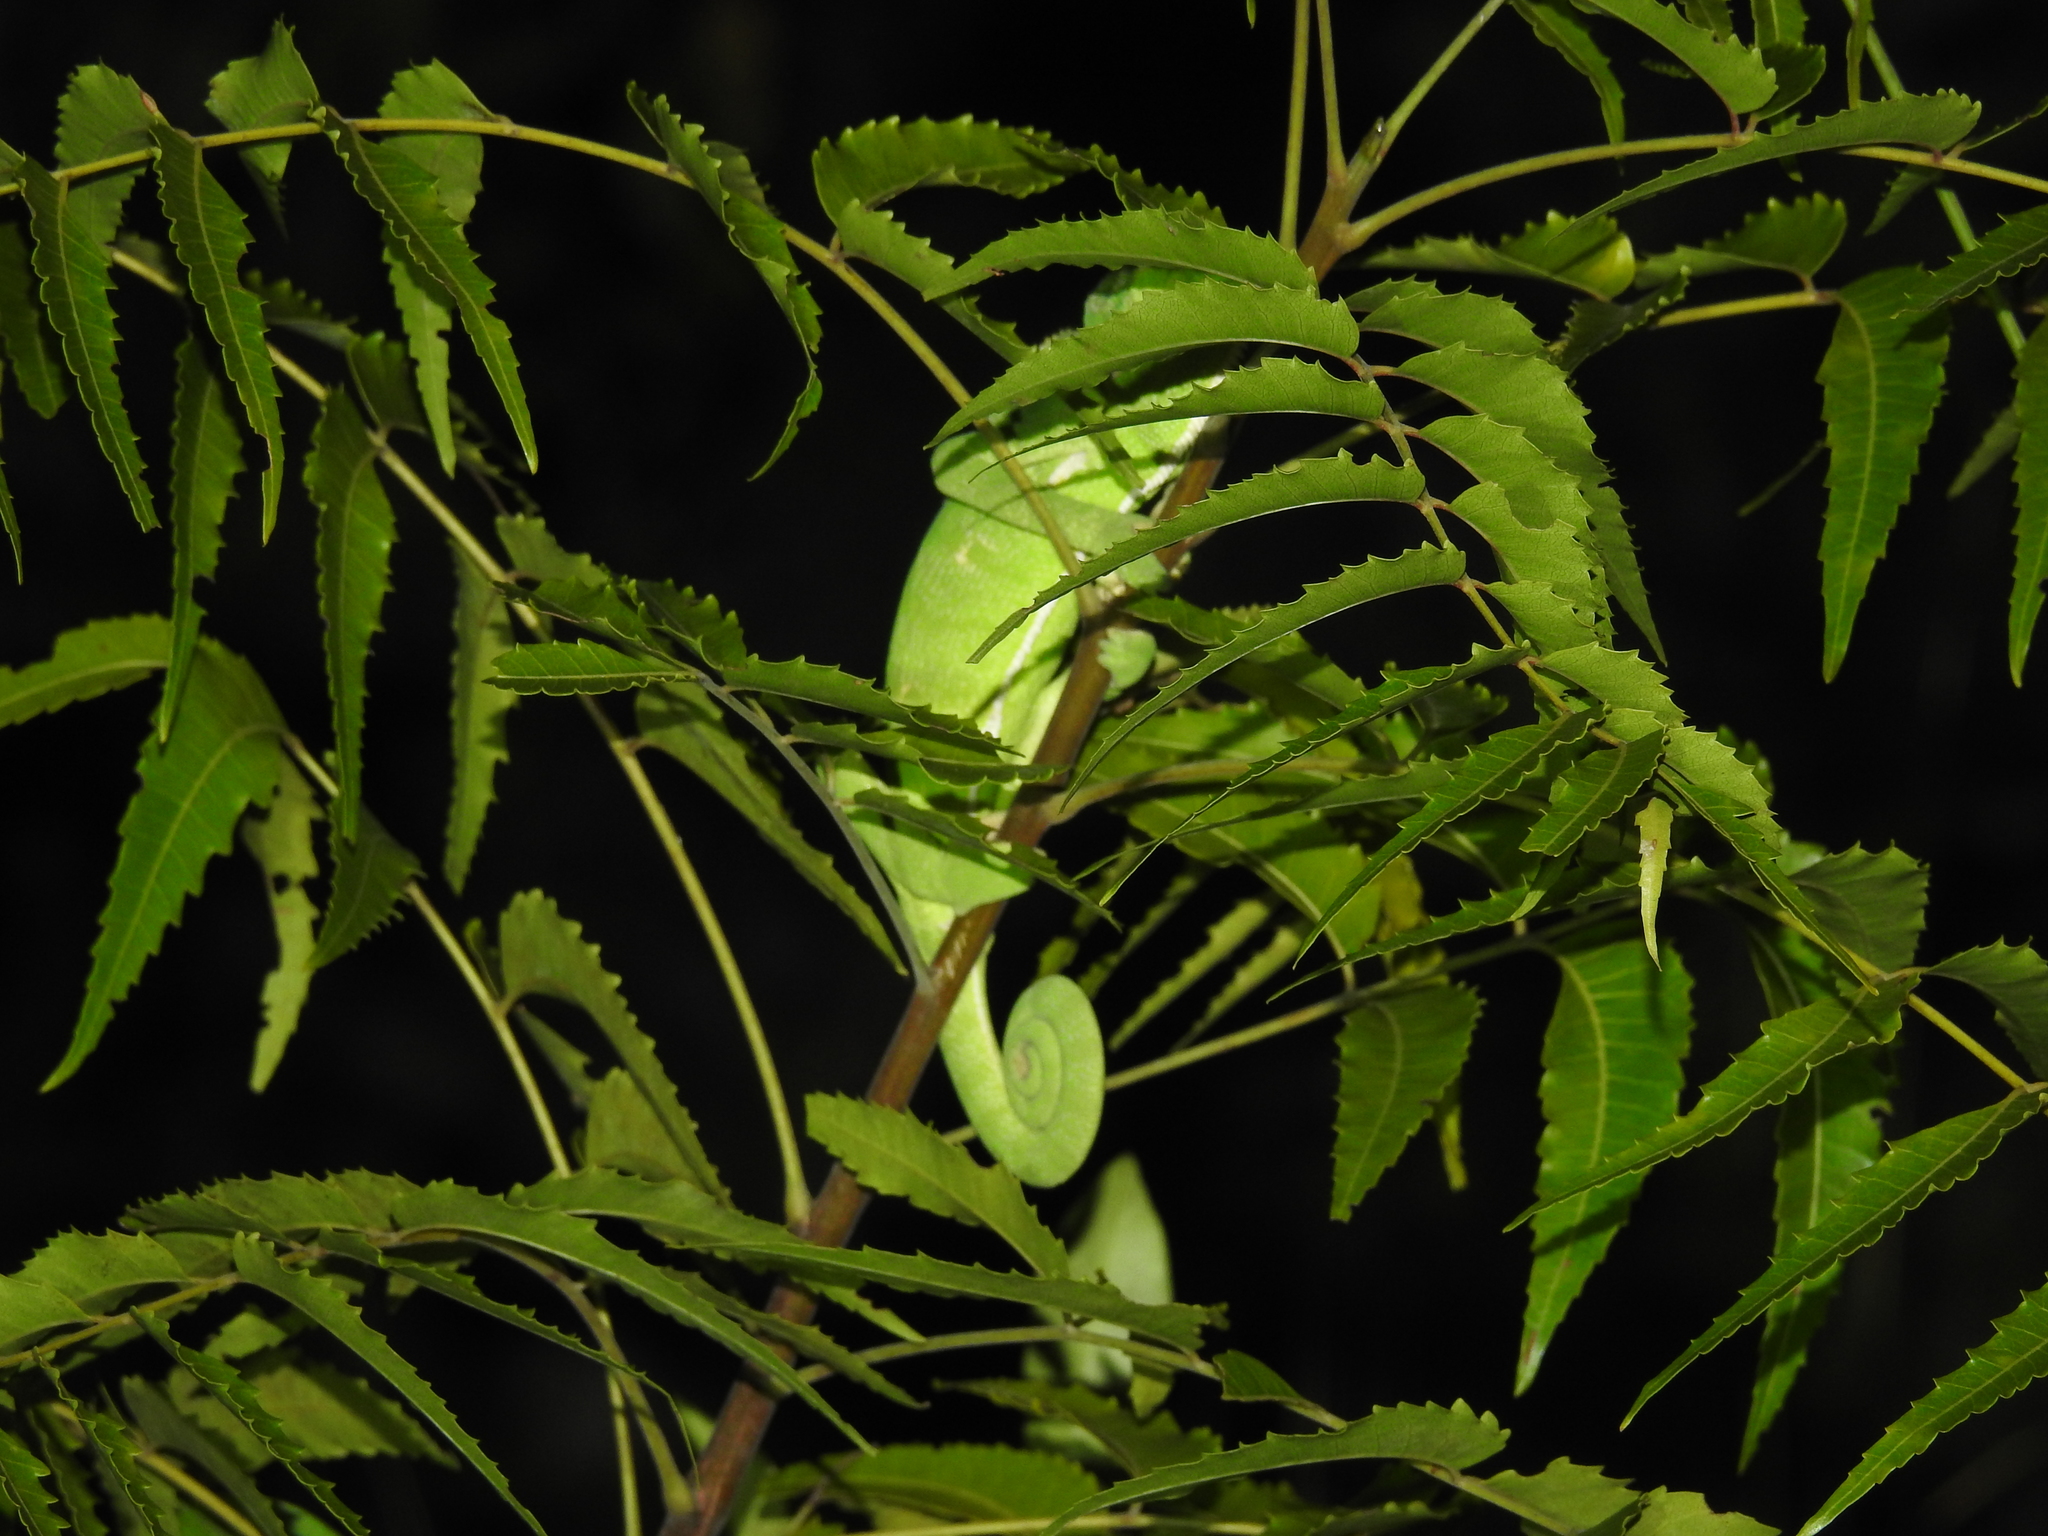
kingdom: Animalia
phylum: Chordata
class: Squamata
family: Chamaeleonidae
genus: Chamaeleo
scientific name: Chamaeleo zeylanicus
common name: Indian chameleon
